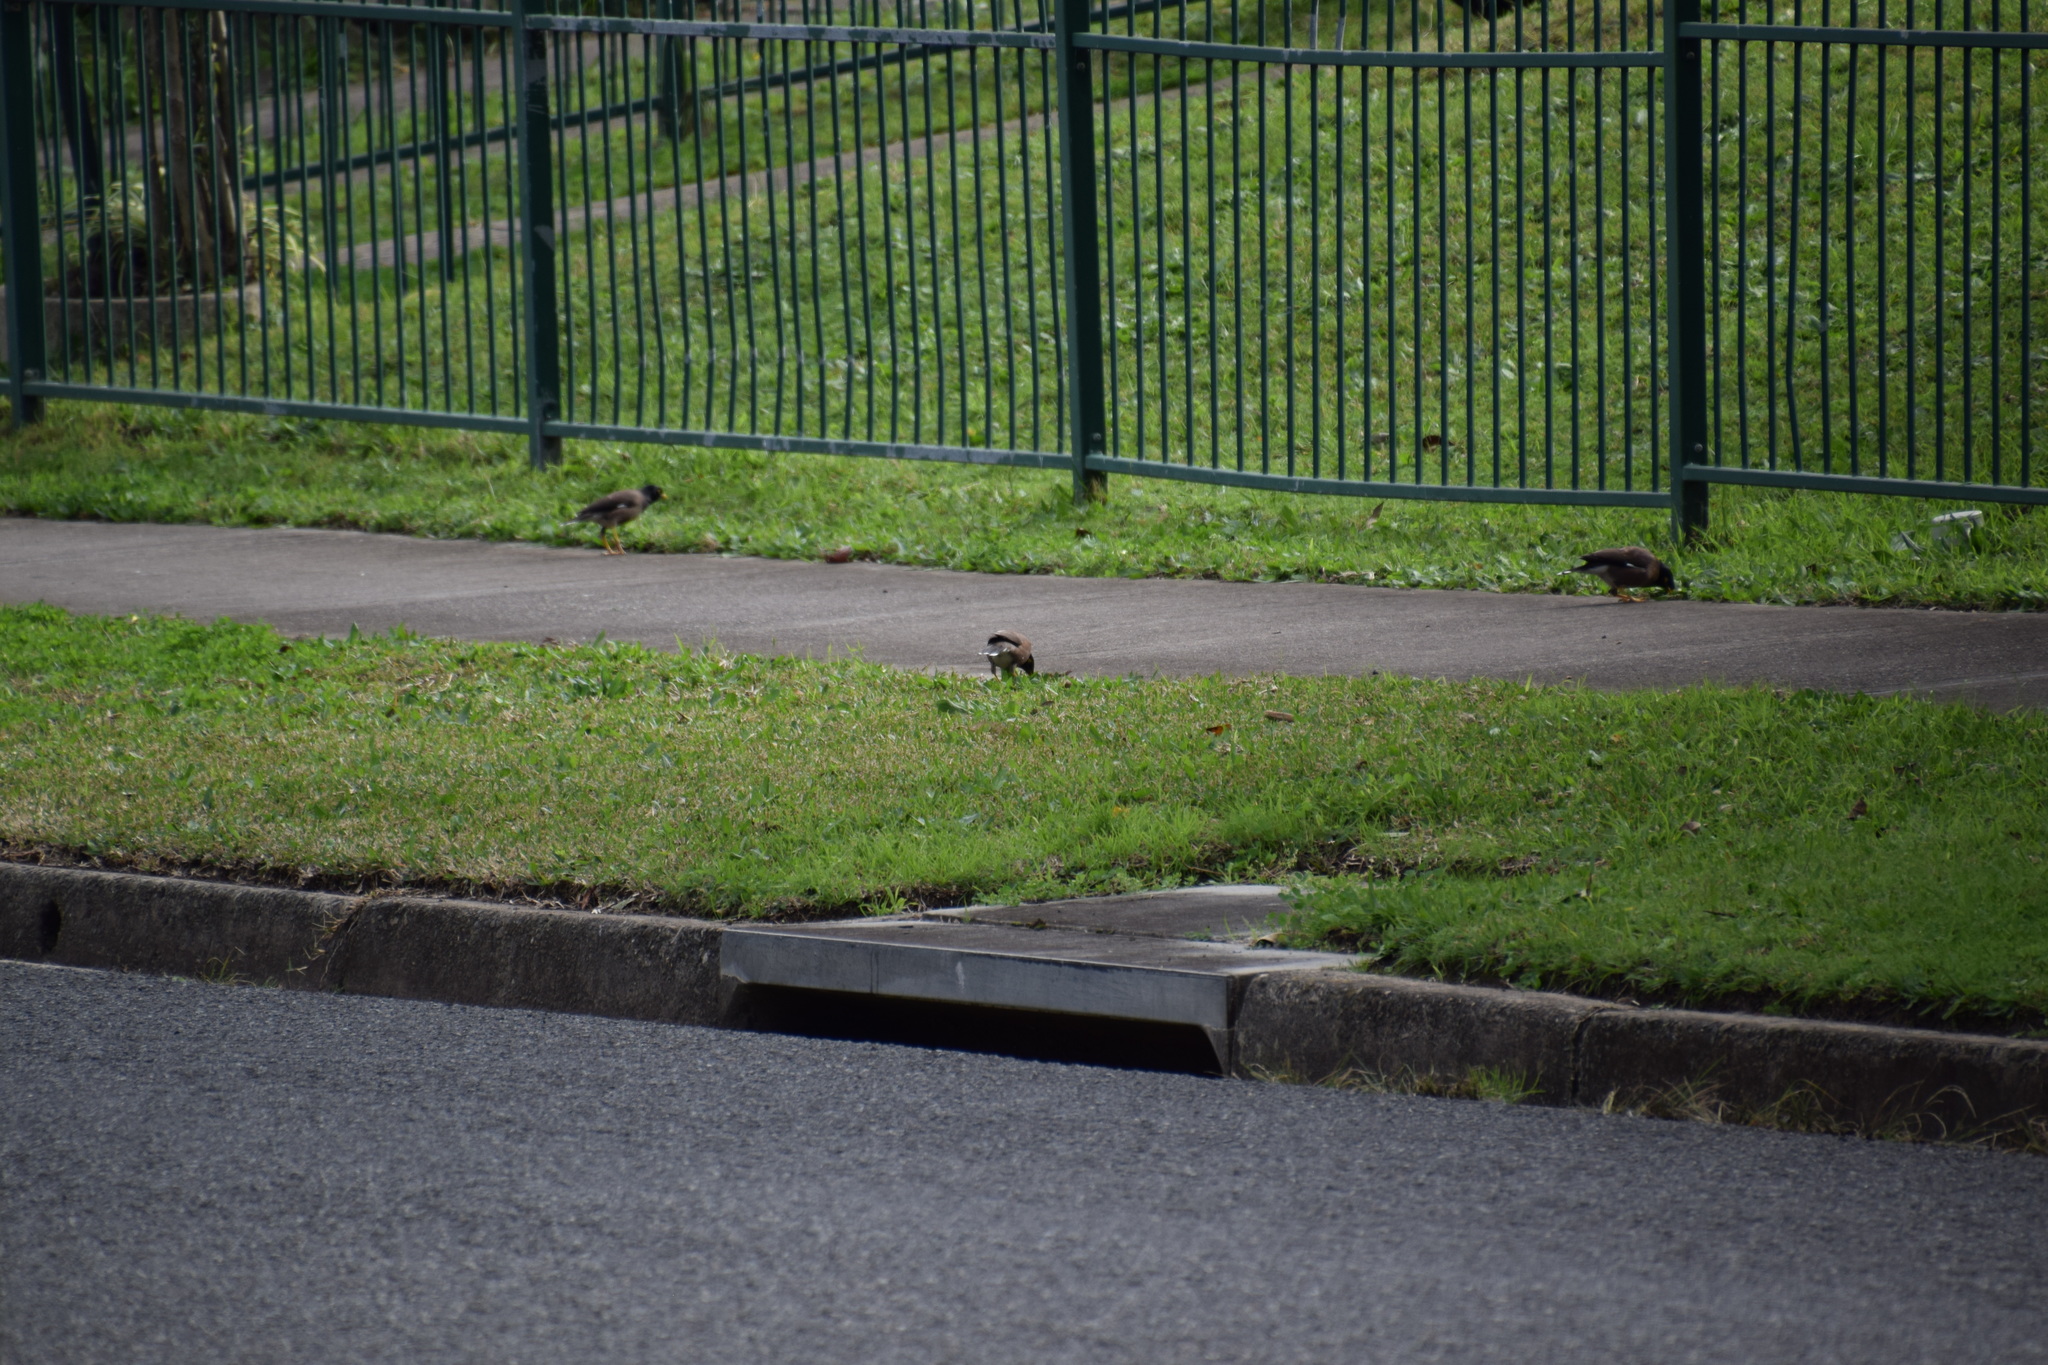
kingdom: Animalia
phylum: Chordata
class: Aves
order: Passeriformes
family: Sturnidae
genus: Acridotheres
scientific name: Acridotheres tristis
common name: Common myna
